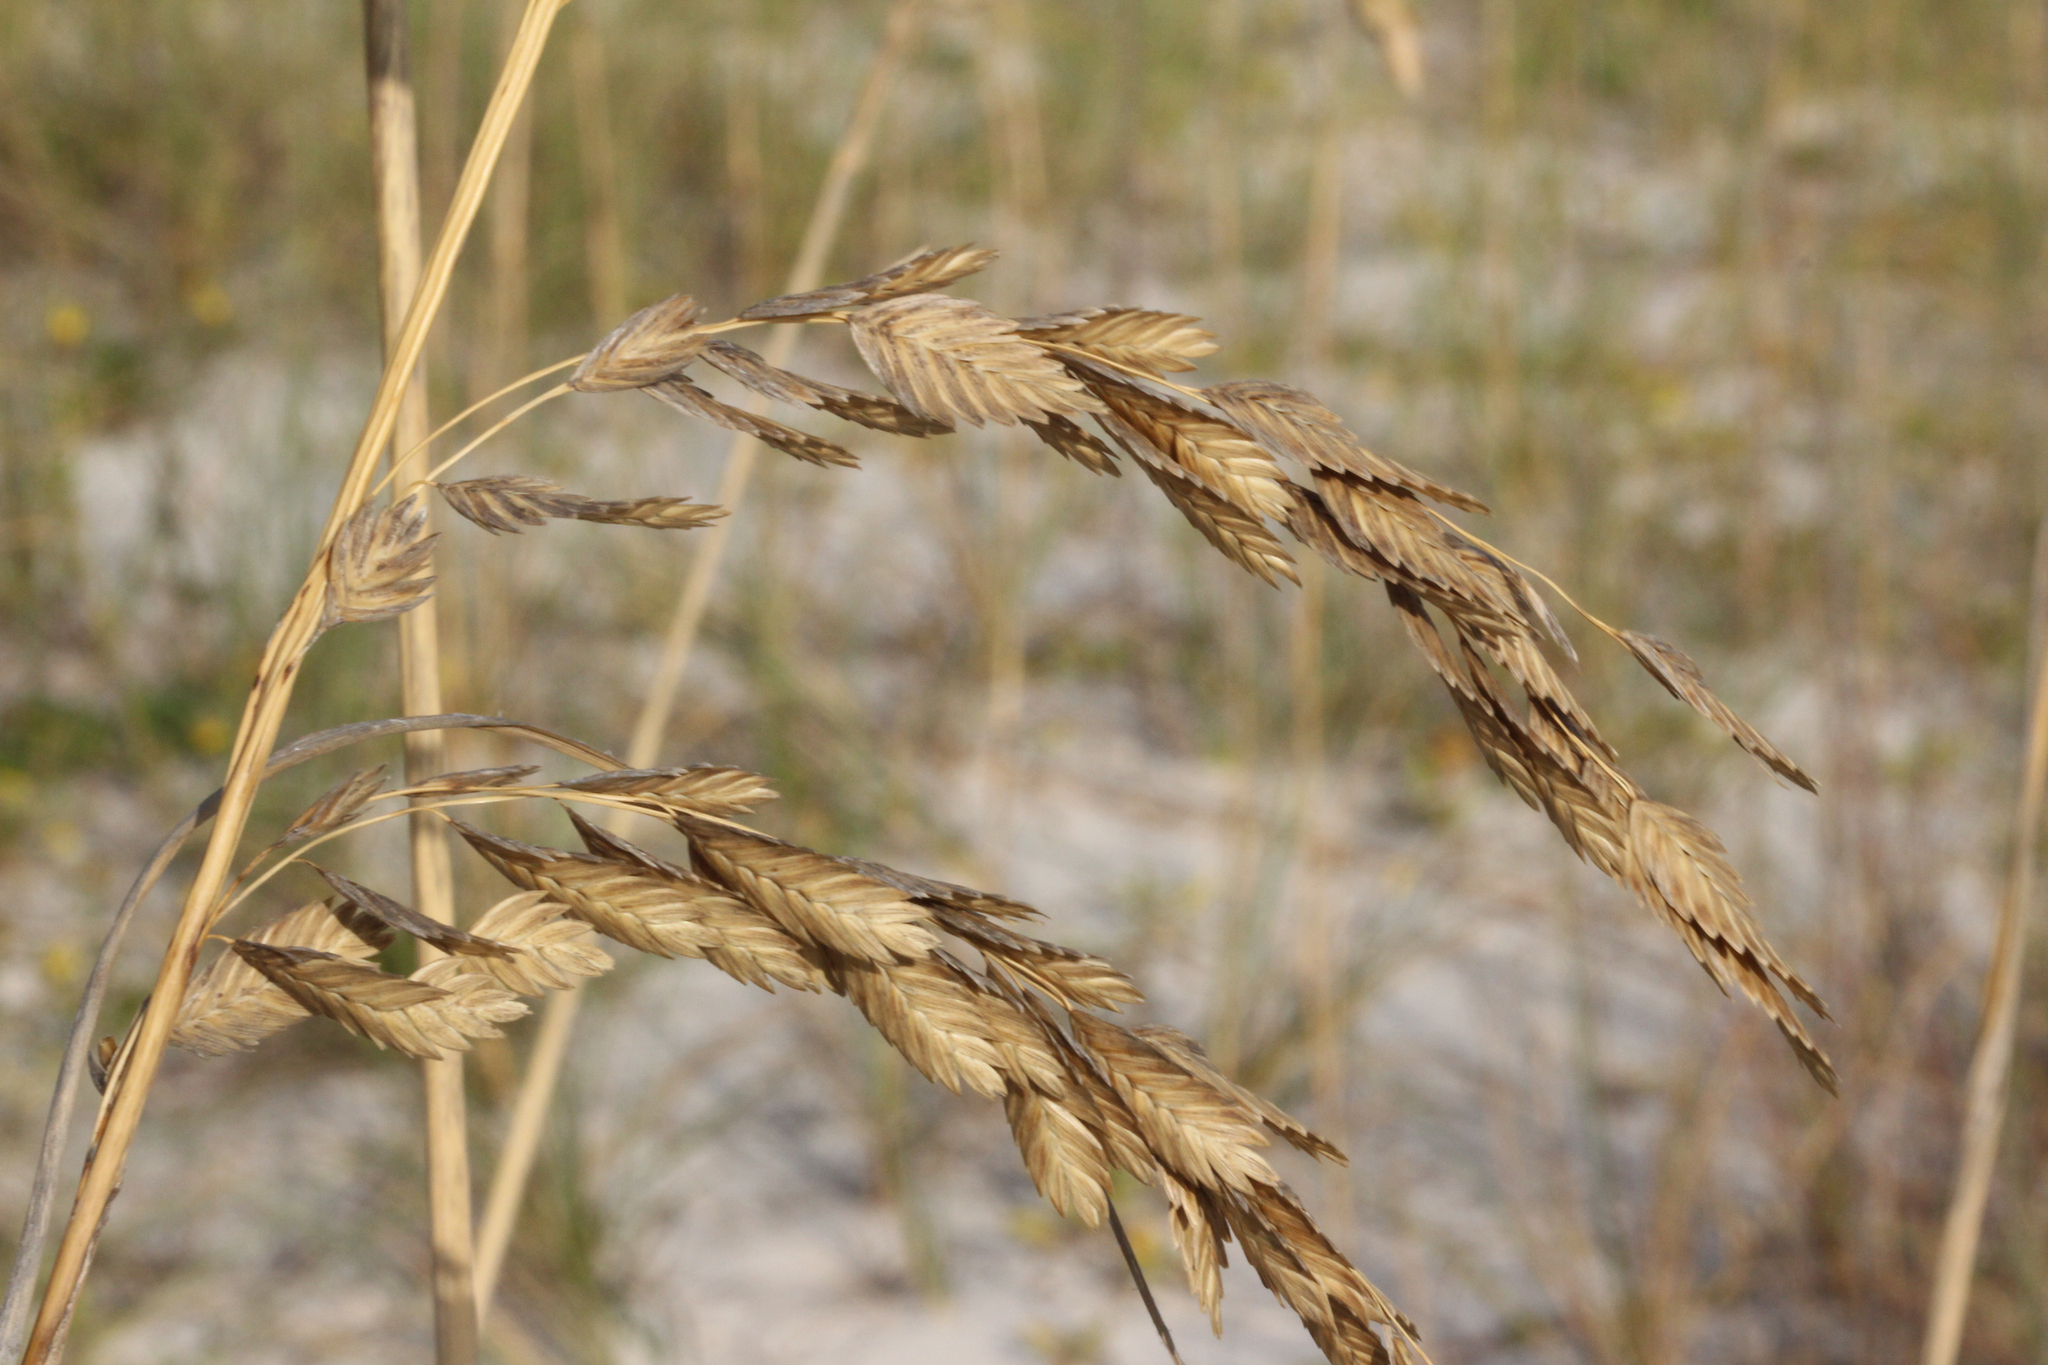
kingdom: Plantae
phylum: Tracheophyta
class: Liliopsida
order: Poales
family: Poaceae
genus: Uniola
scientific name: Uniola paniculata
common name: Seaside-oats
